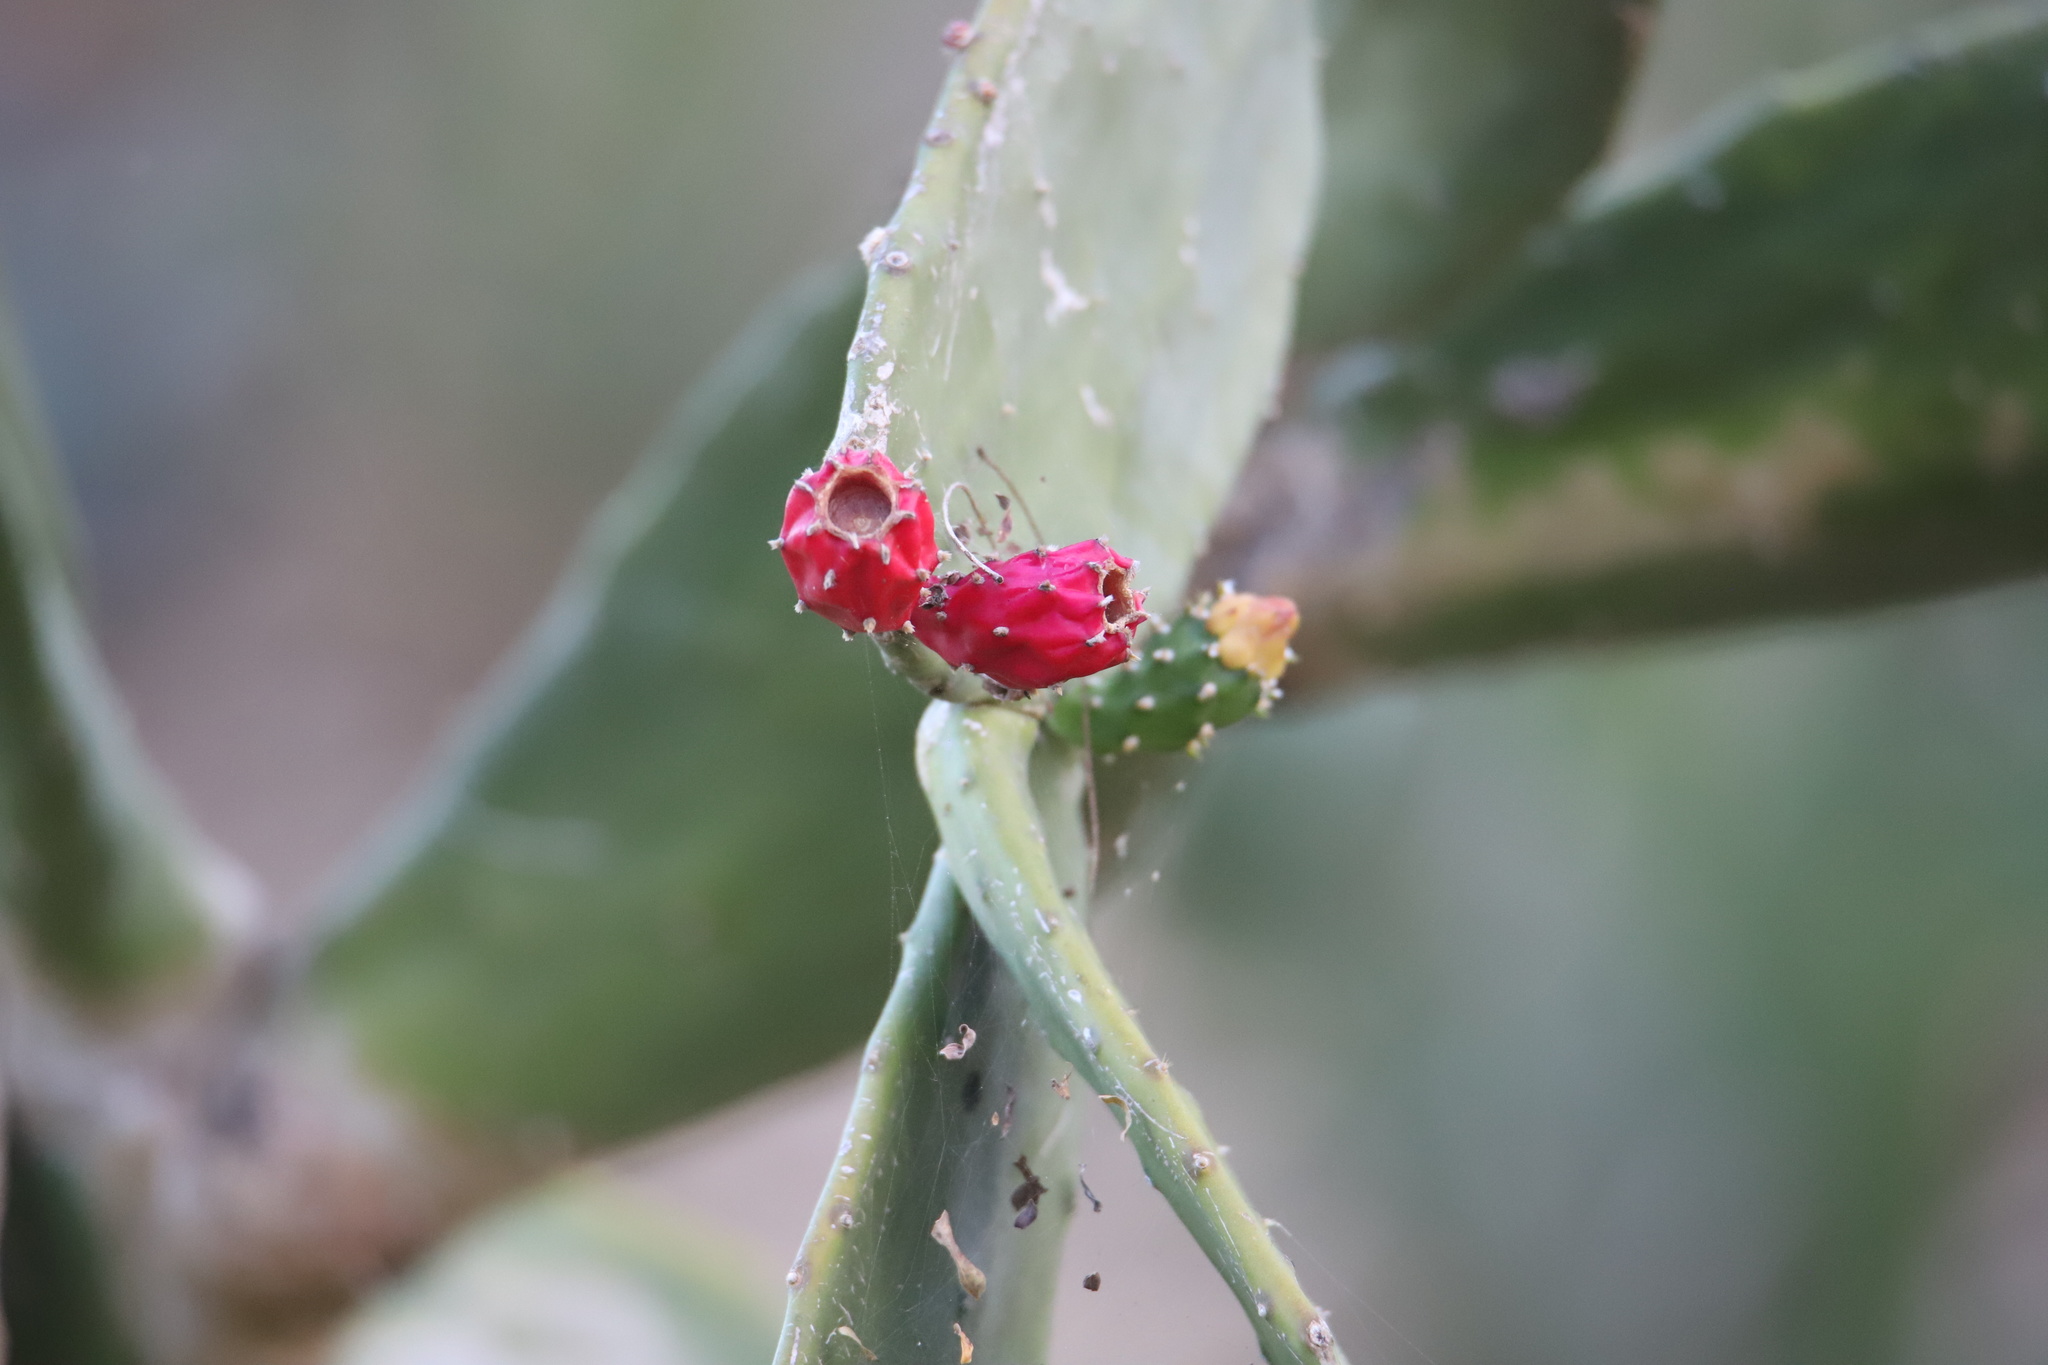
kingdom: Plantae
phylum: Tracheophyta
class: Magnoliopsida
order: Caryophyllales
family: Cactaceae
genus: Opuntia
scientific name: Opuntia cochenillifera
